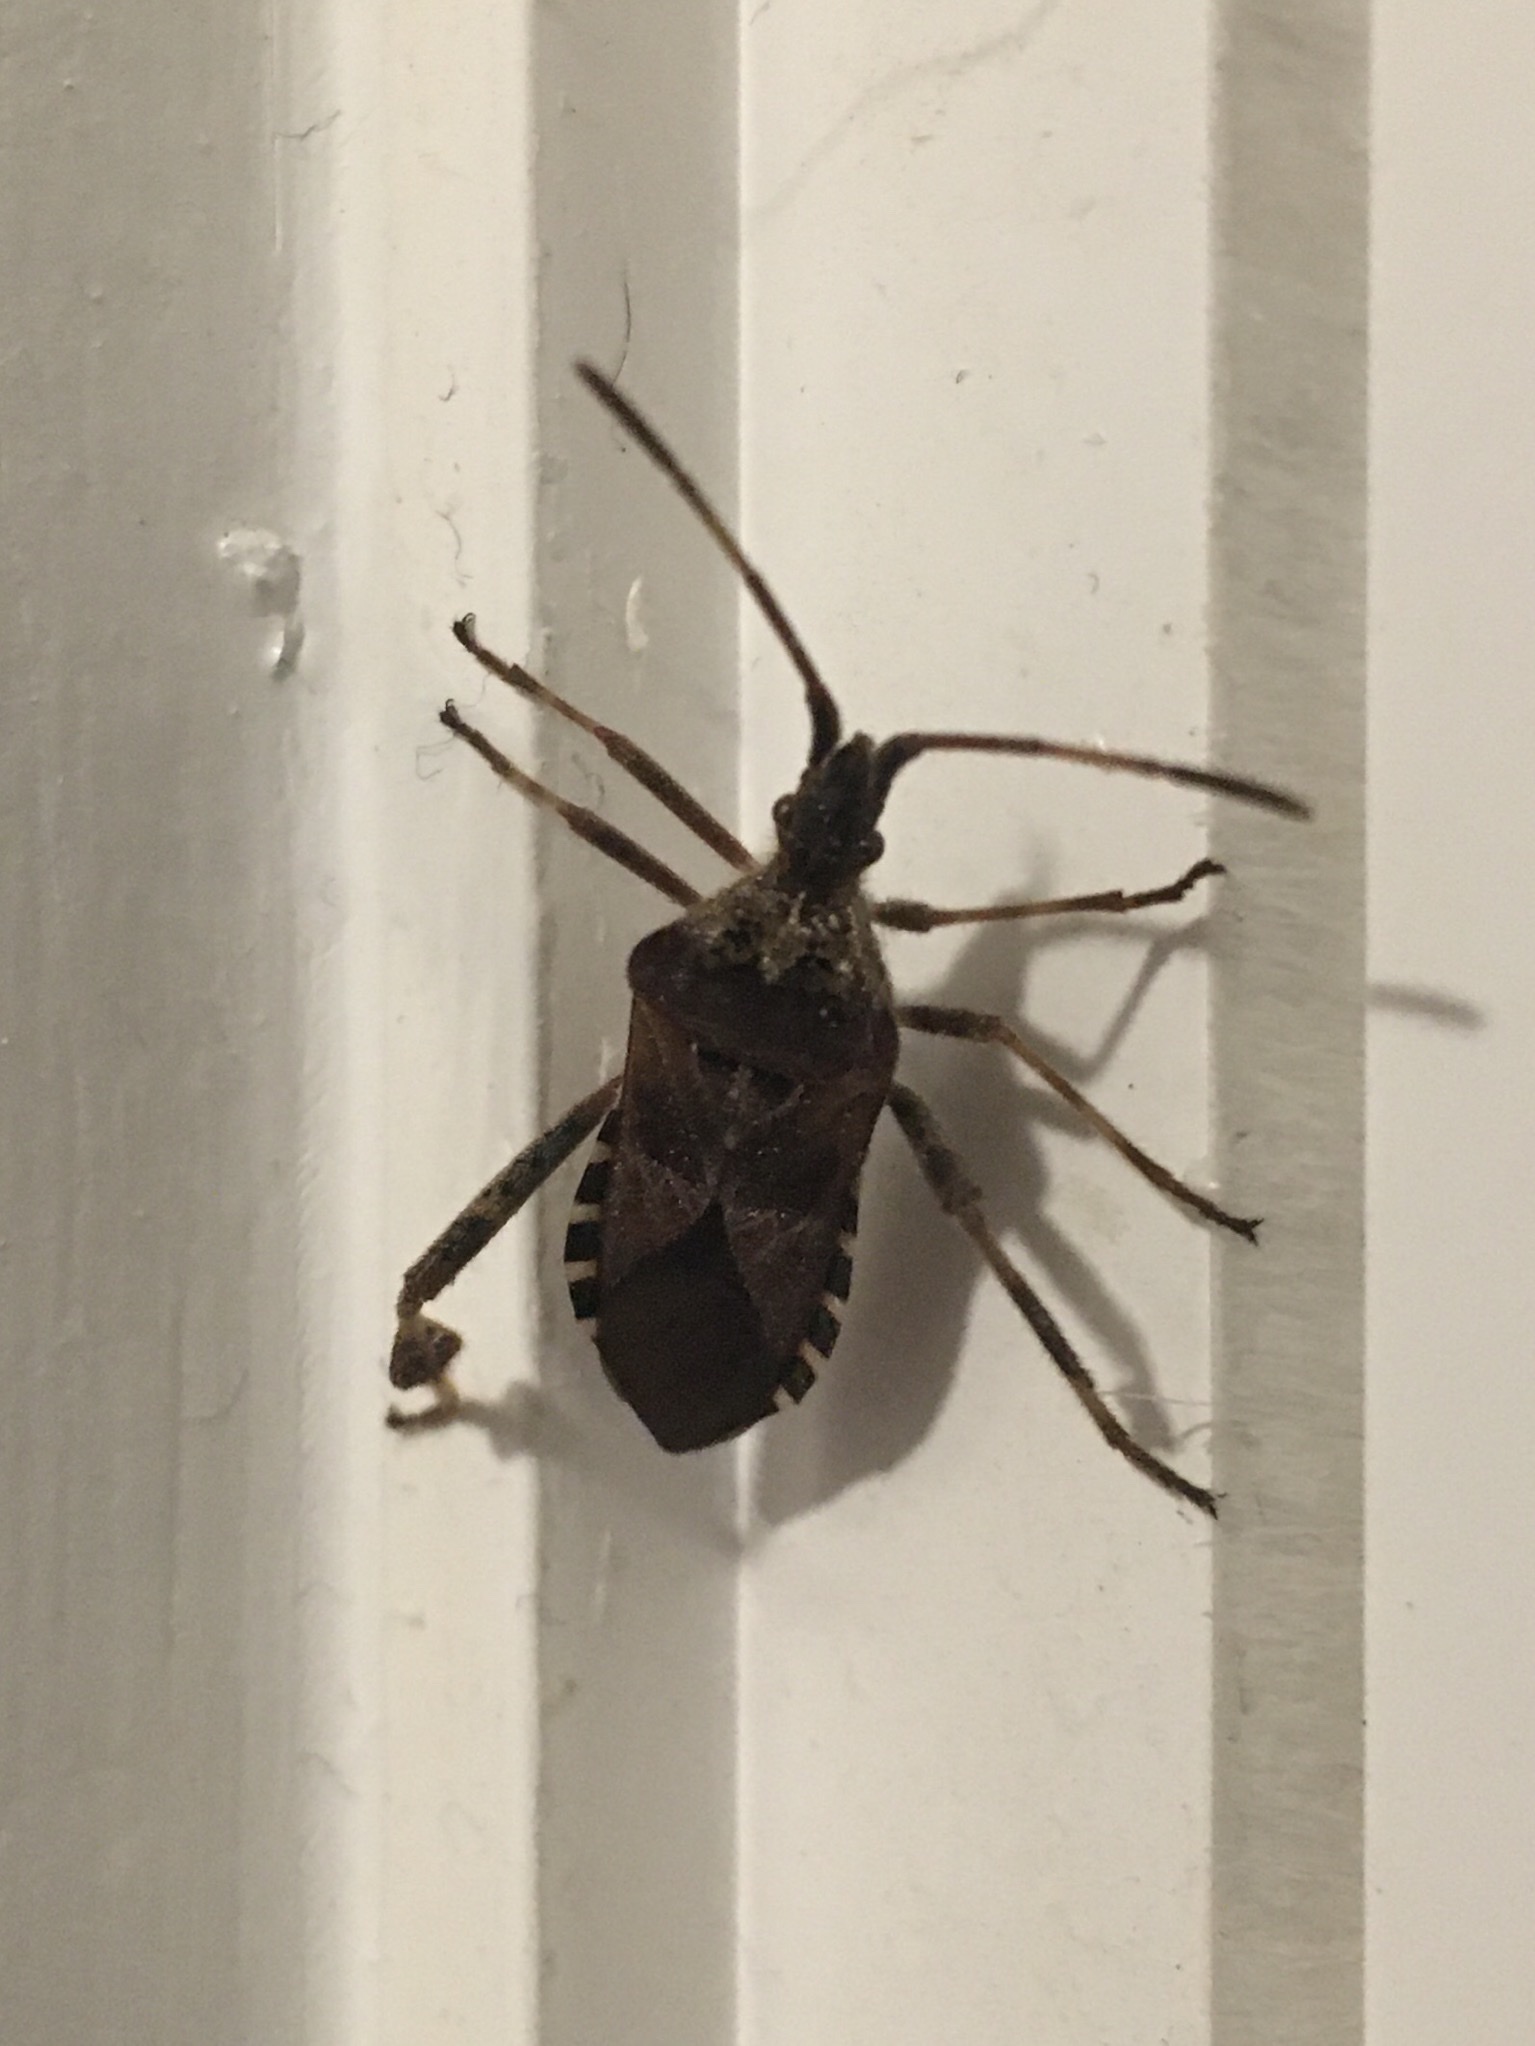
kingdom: Animalia
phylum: Arthropoda
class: Insecta
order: Hemiptera
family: Coreidae
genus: Leptoglossus
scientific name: Leptoglossus occidentalis
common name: Western conifer-seed bug
